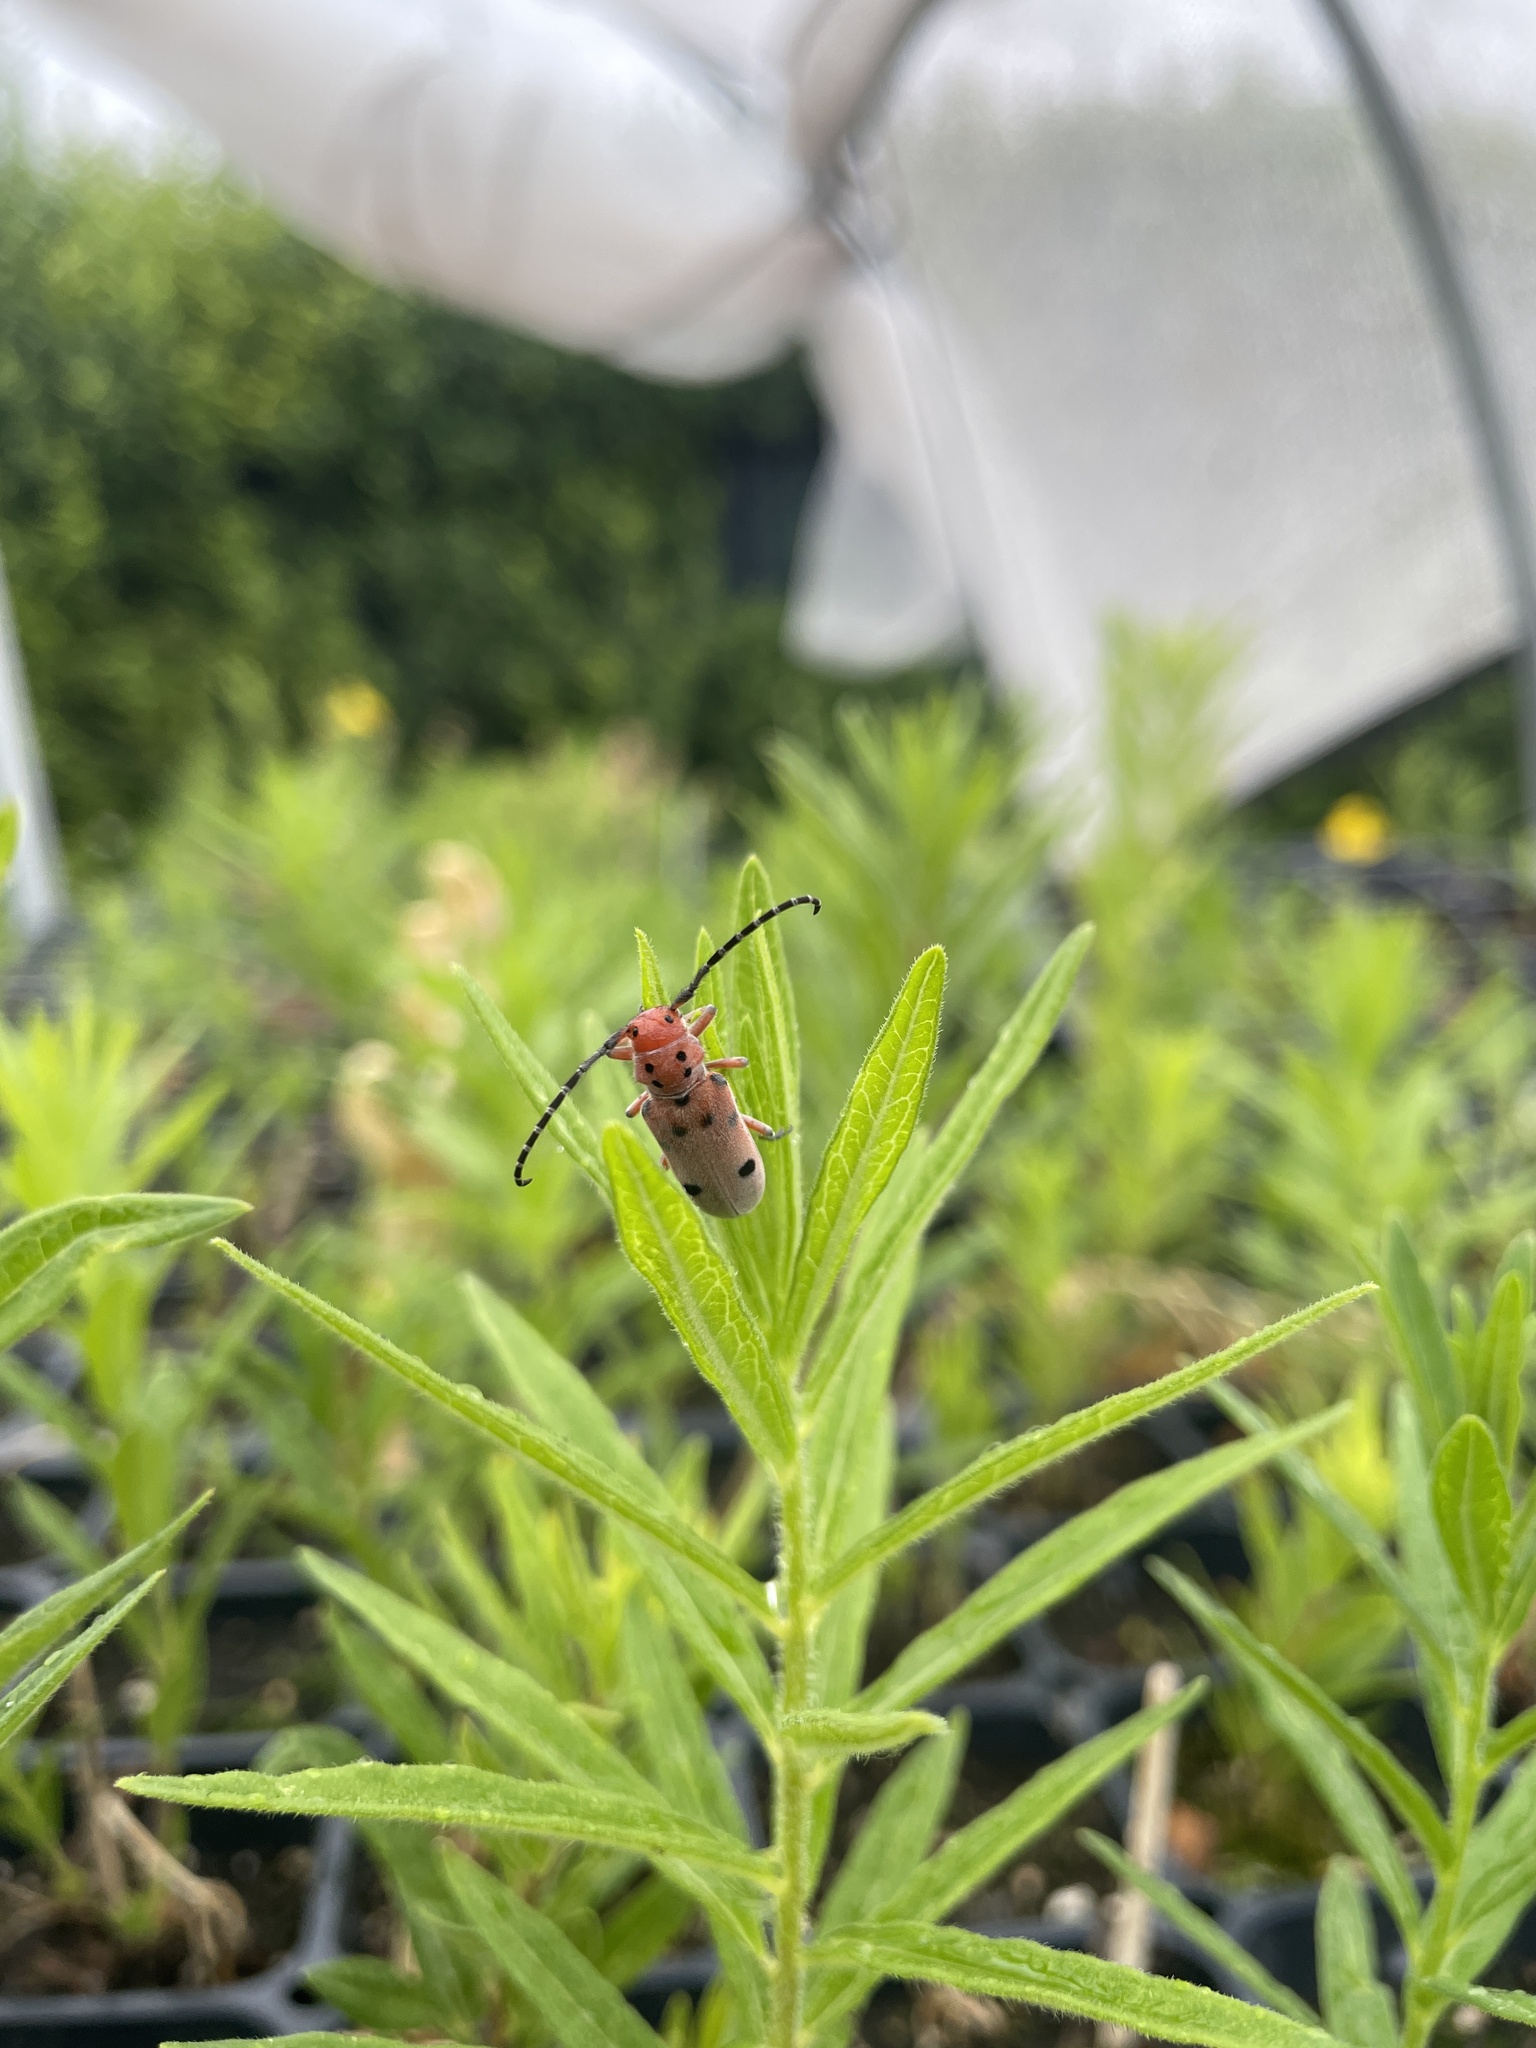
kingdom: Animalia
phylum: Arthropoda
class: Insecta
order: Coleoptera
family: Cerambycidae
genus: Tetraopes
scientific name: Tetraopes femoratus
